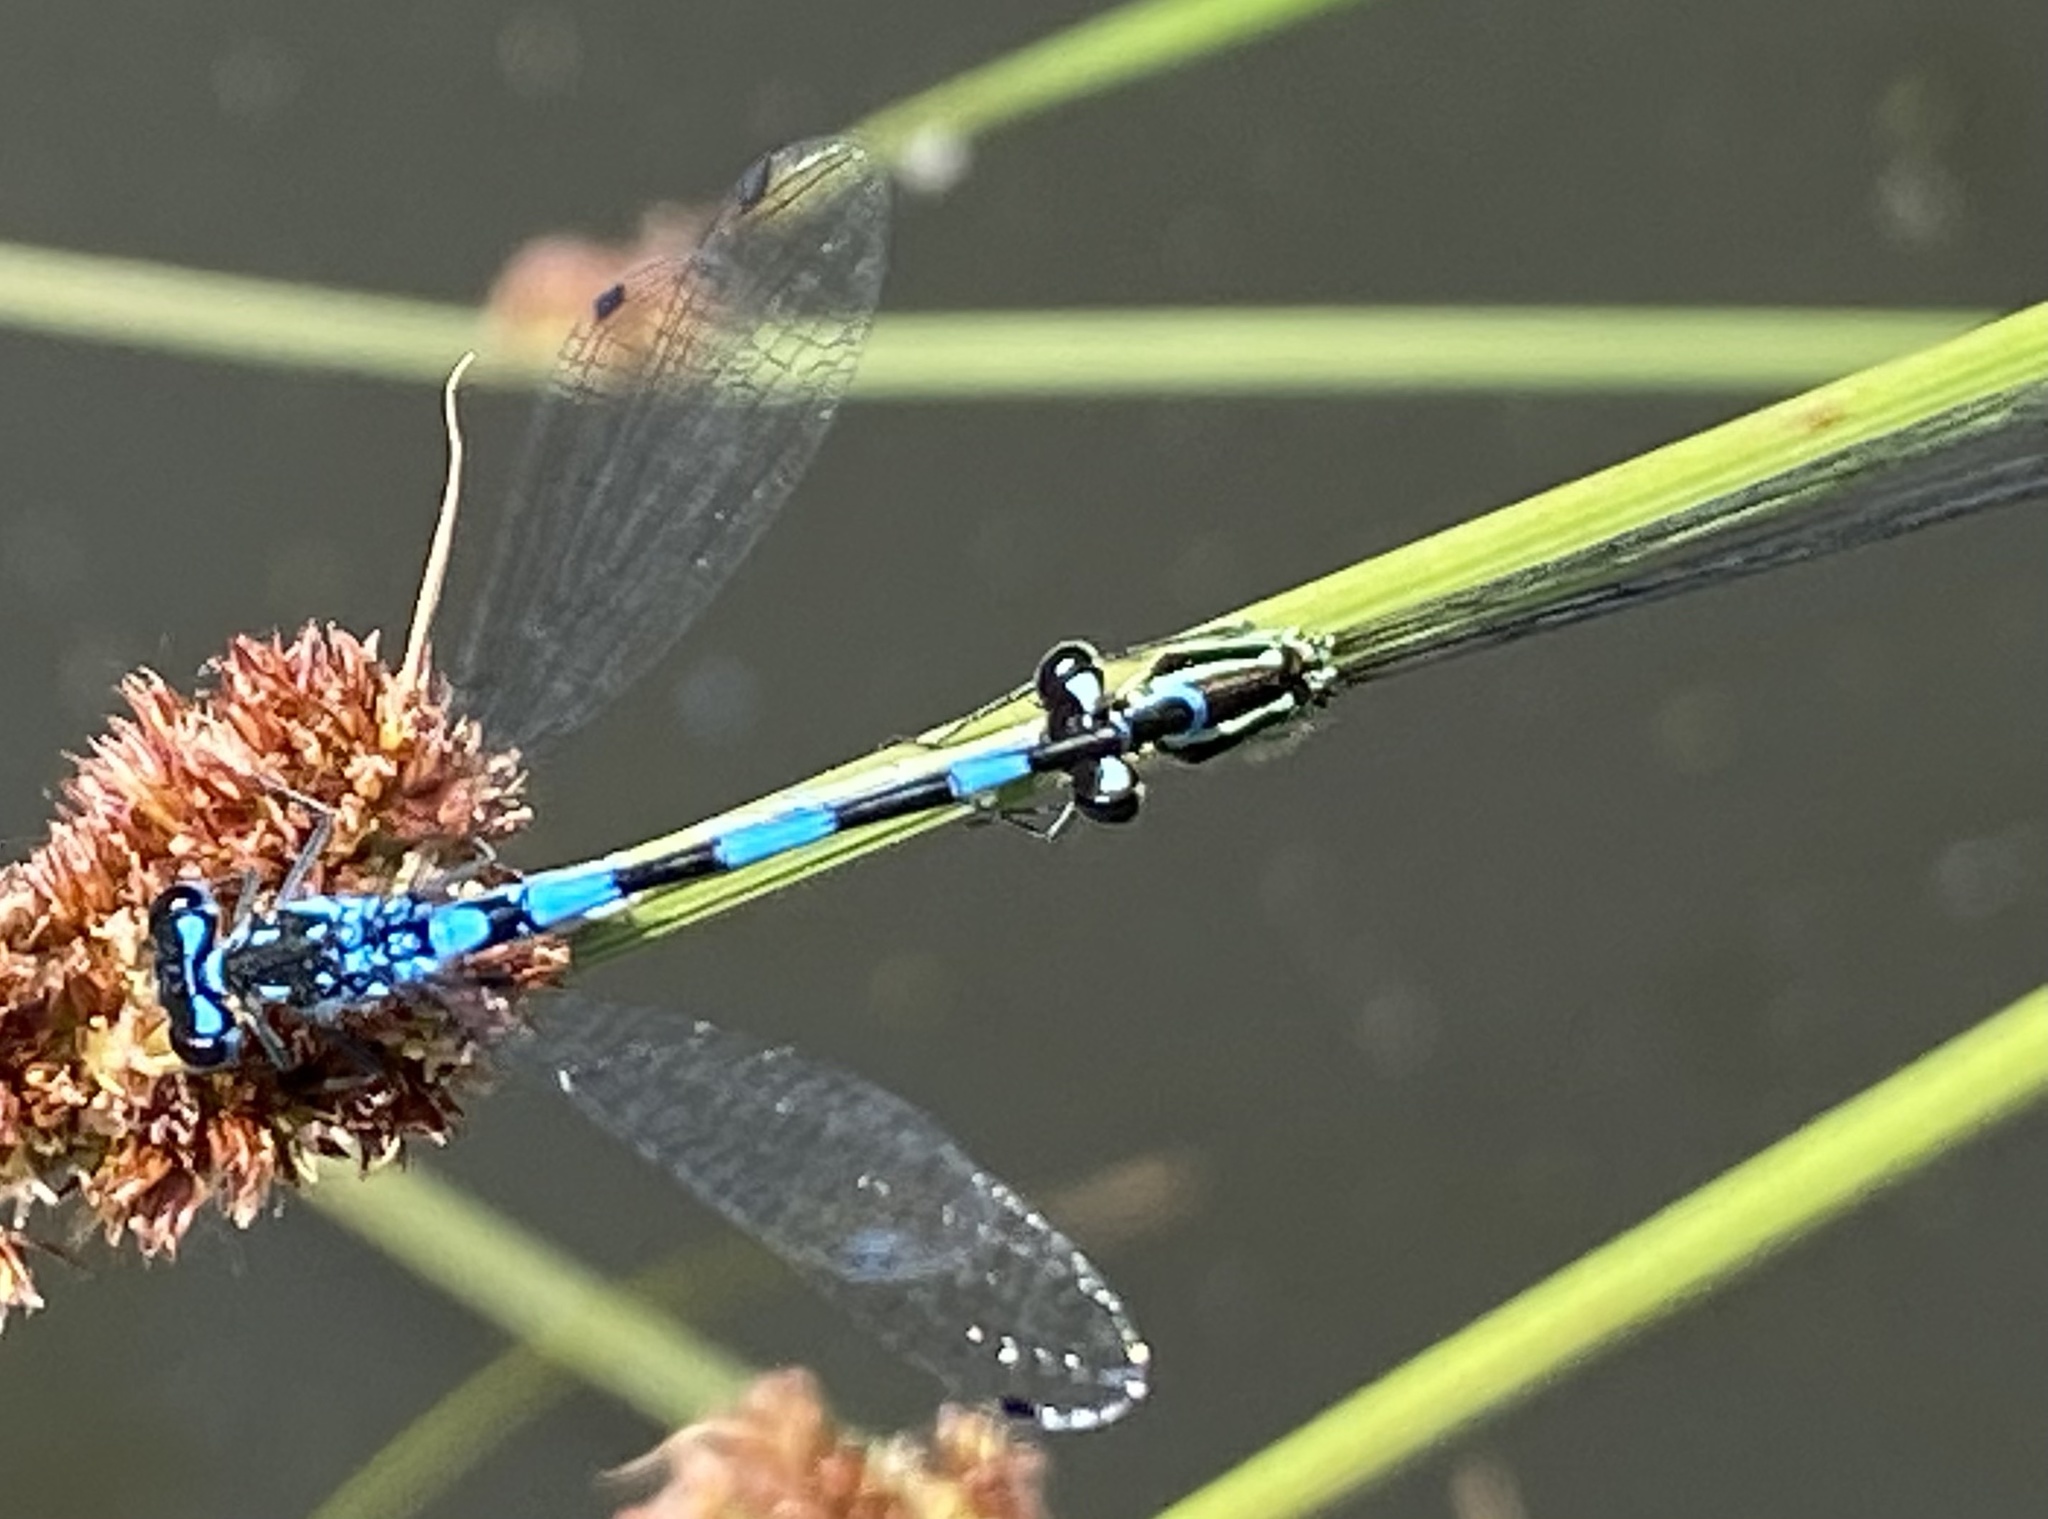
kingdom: Animalia
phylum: Arthropoda
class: Insecta
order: Odonata
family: Coenagrionidae
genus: Coenagrion
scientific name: Coenagrion pulchellum
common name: Variable bluet
